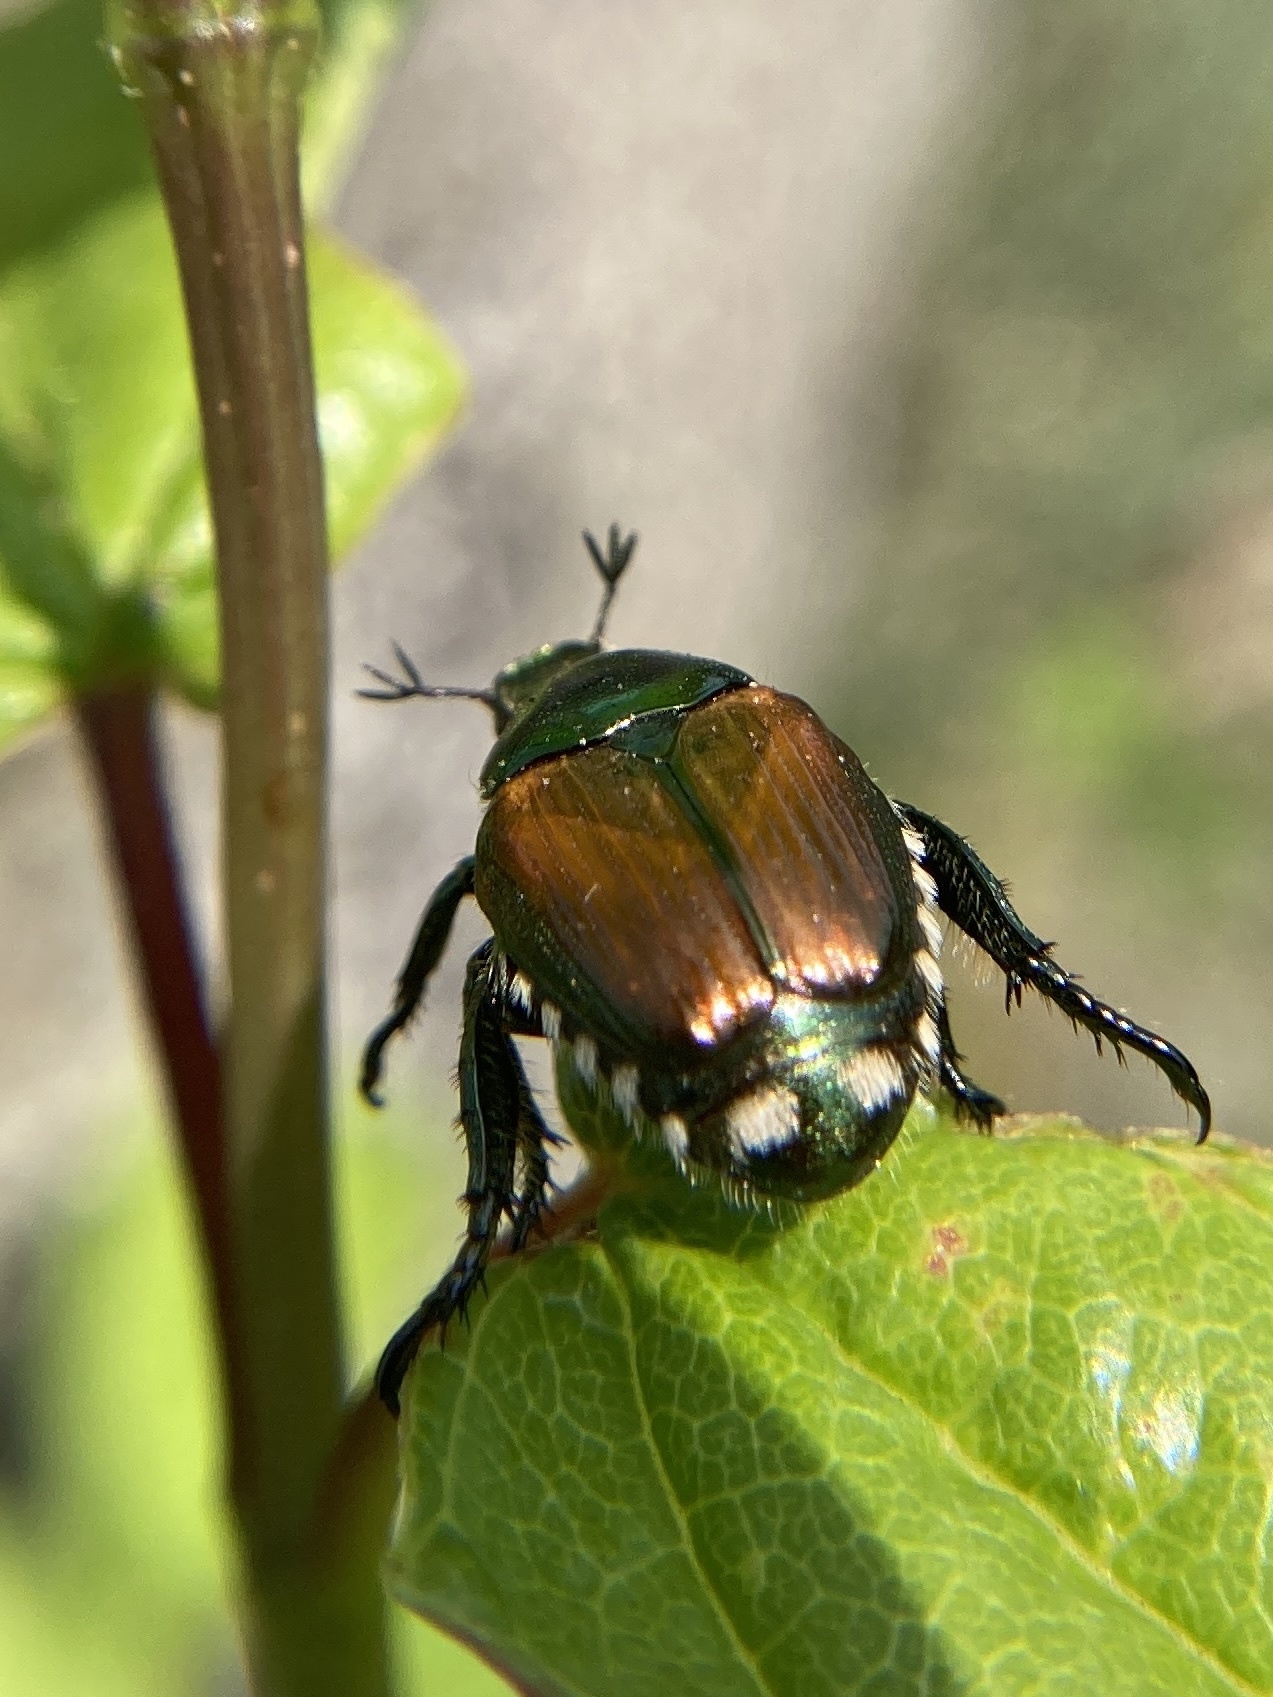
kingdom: Animalia
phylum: Arthropoda
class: Insecta
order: Coleoptera
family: Scarabaeidae
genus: Popillia
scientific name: Popillia japonica
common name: Japanese beetle
